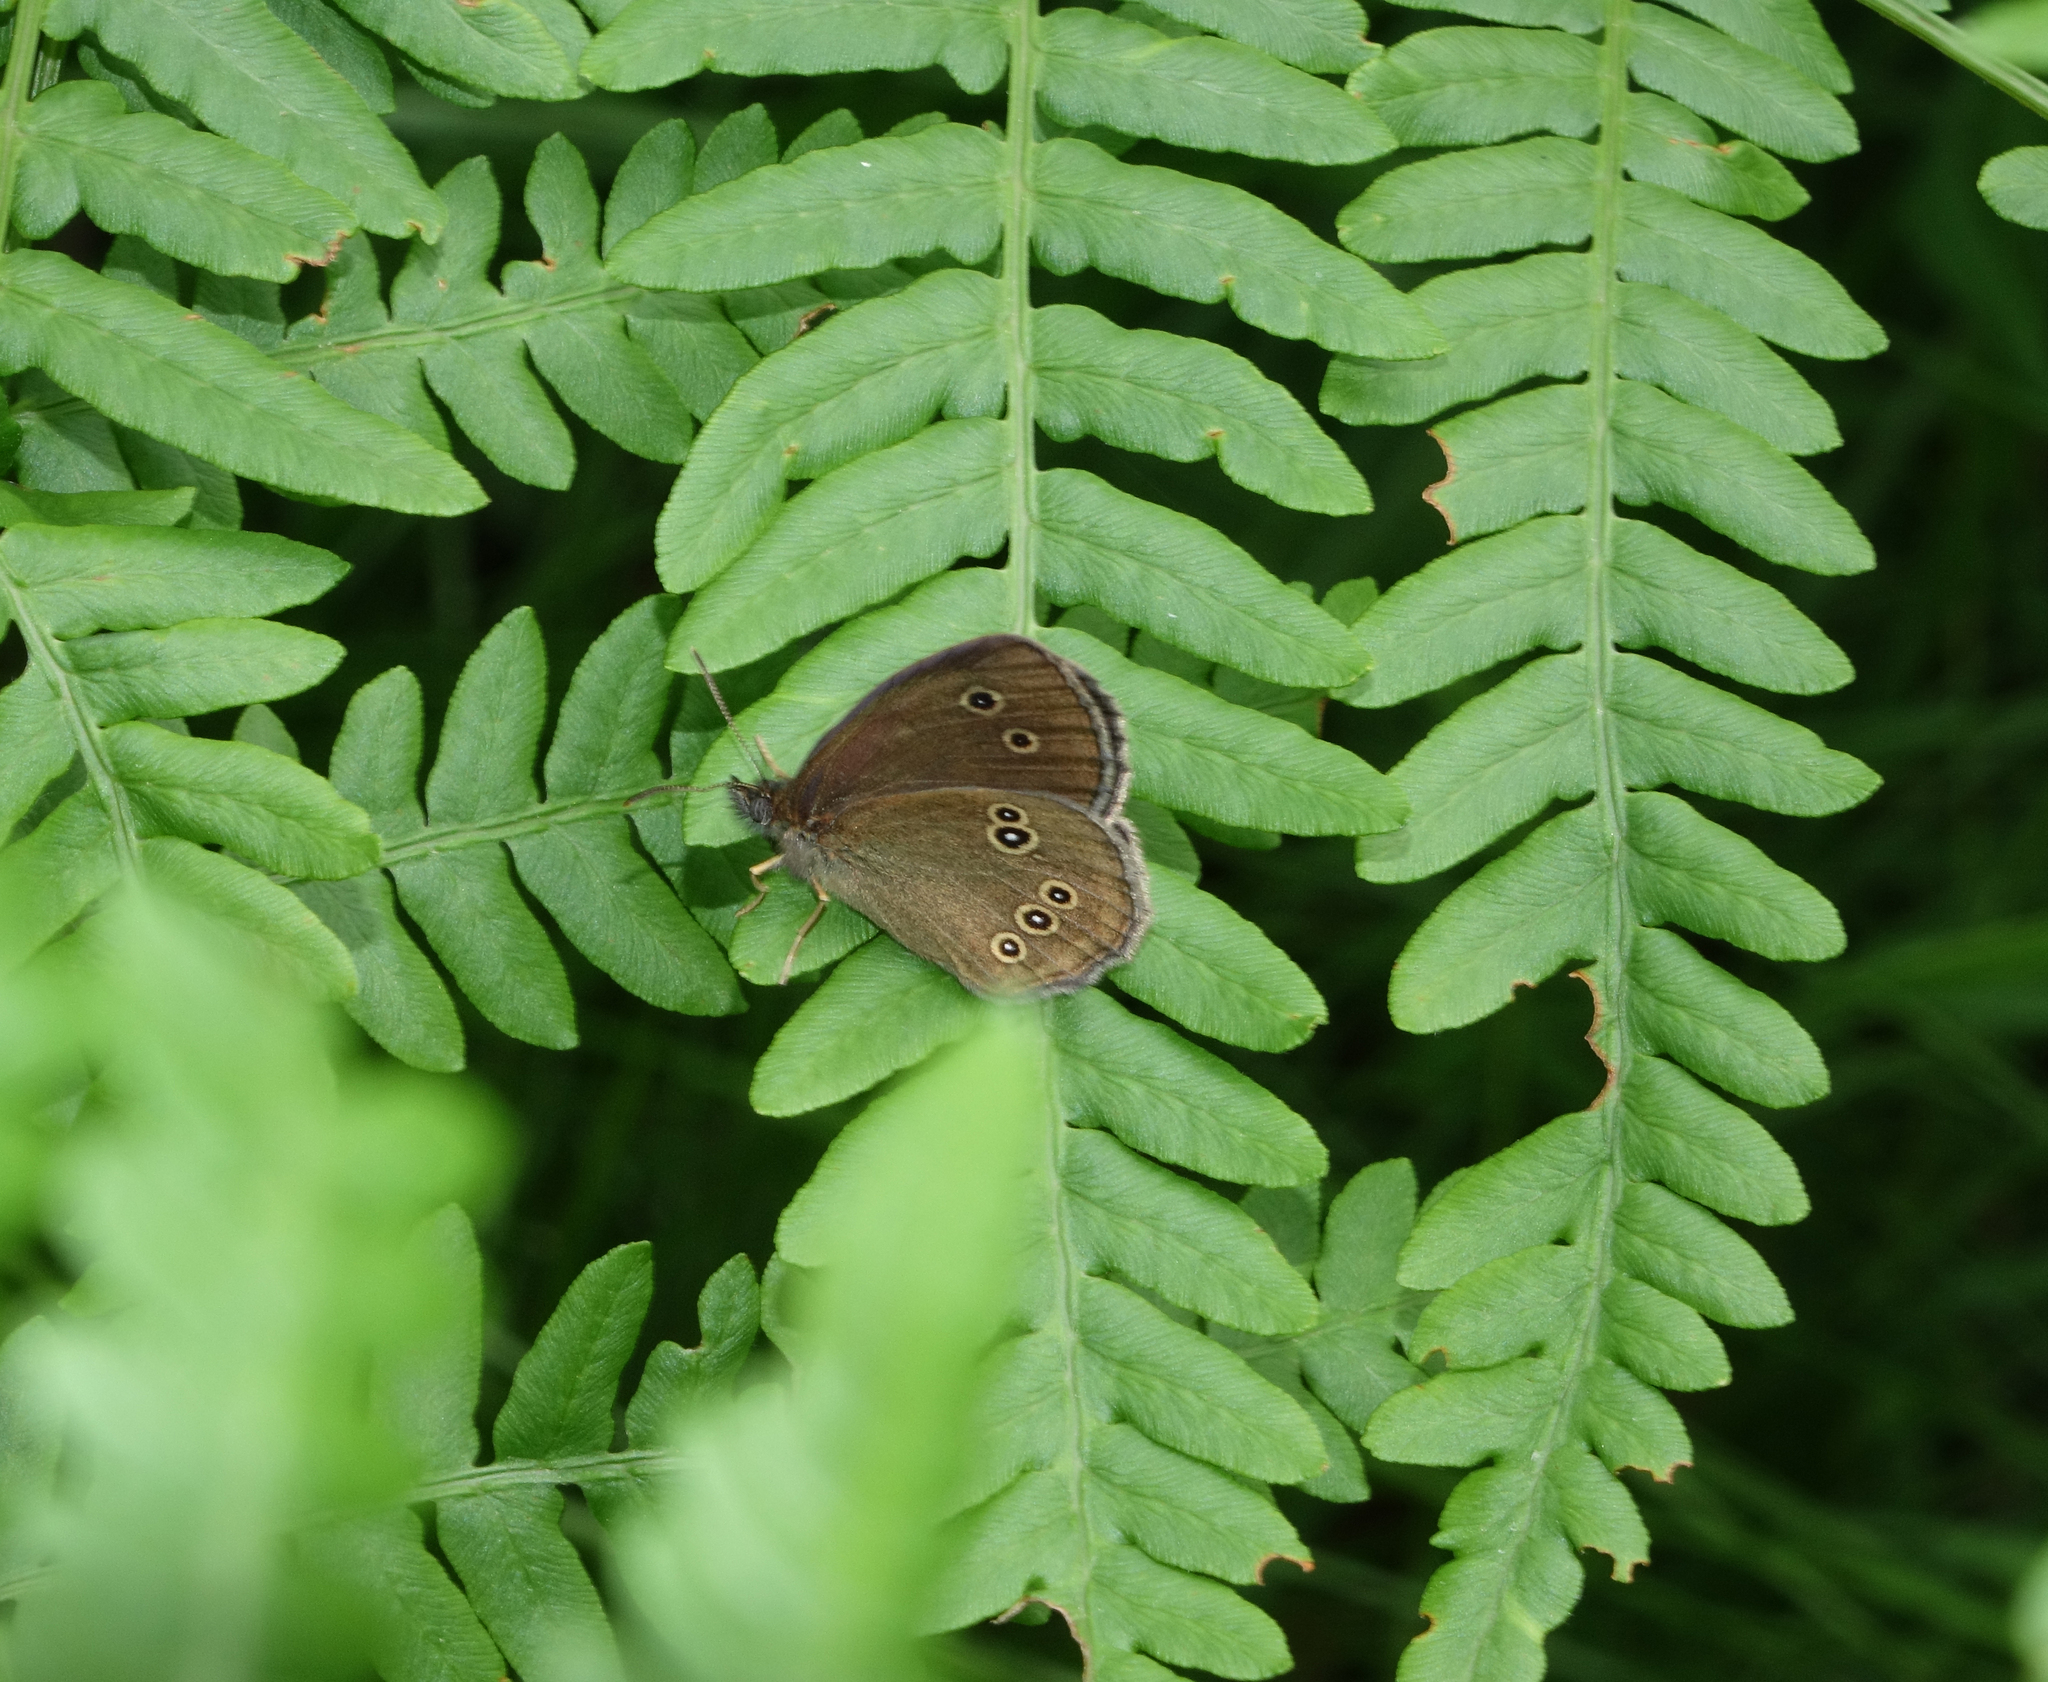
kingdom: Plantae
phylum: Tracheophyta
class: Polypodiopsida
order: Polypodiales
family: Dennstaedtiaceae
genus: Pteridium
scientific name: Pteridium aquilinum
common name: Bracken
